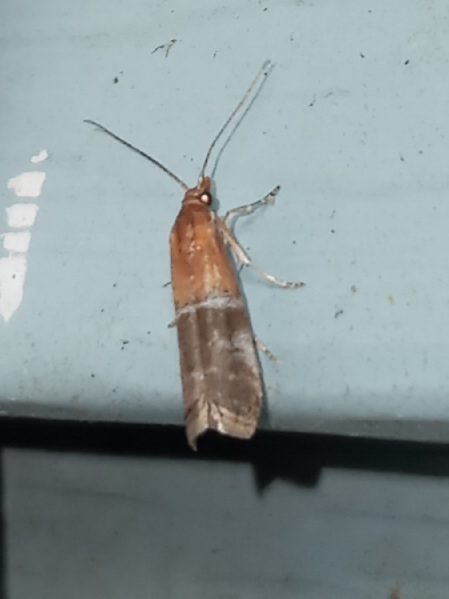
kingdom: Animalia
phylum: Arthropoda
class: Insecta
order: Lepidoptera
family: Pyralidae
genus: Moodna
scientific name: Moodna pallidostrinella
